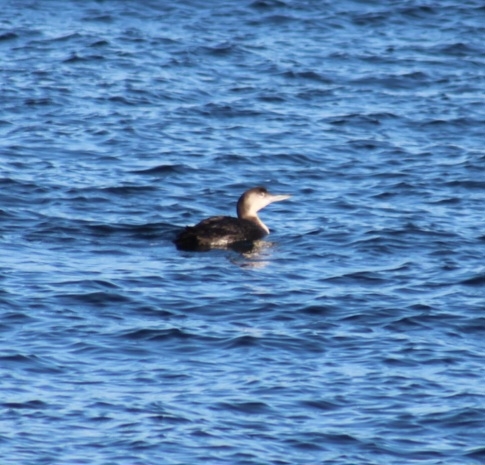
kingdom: Animalia
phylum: Chordata
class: Aves
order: Gaviiformes
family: Gaviidae
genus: Gavia
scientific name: Gavia immer
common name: Common loon
